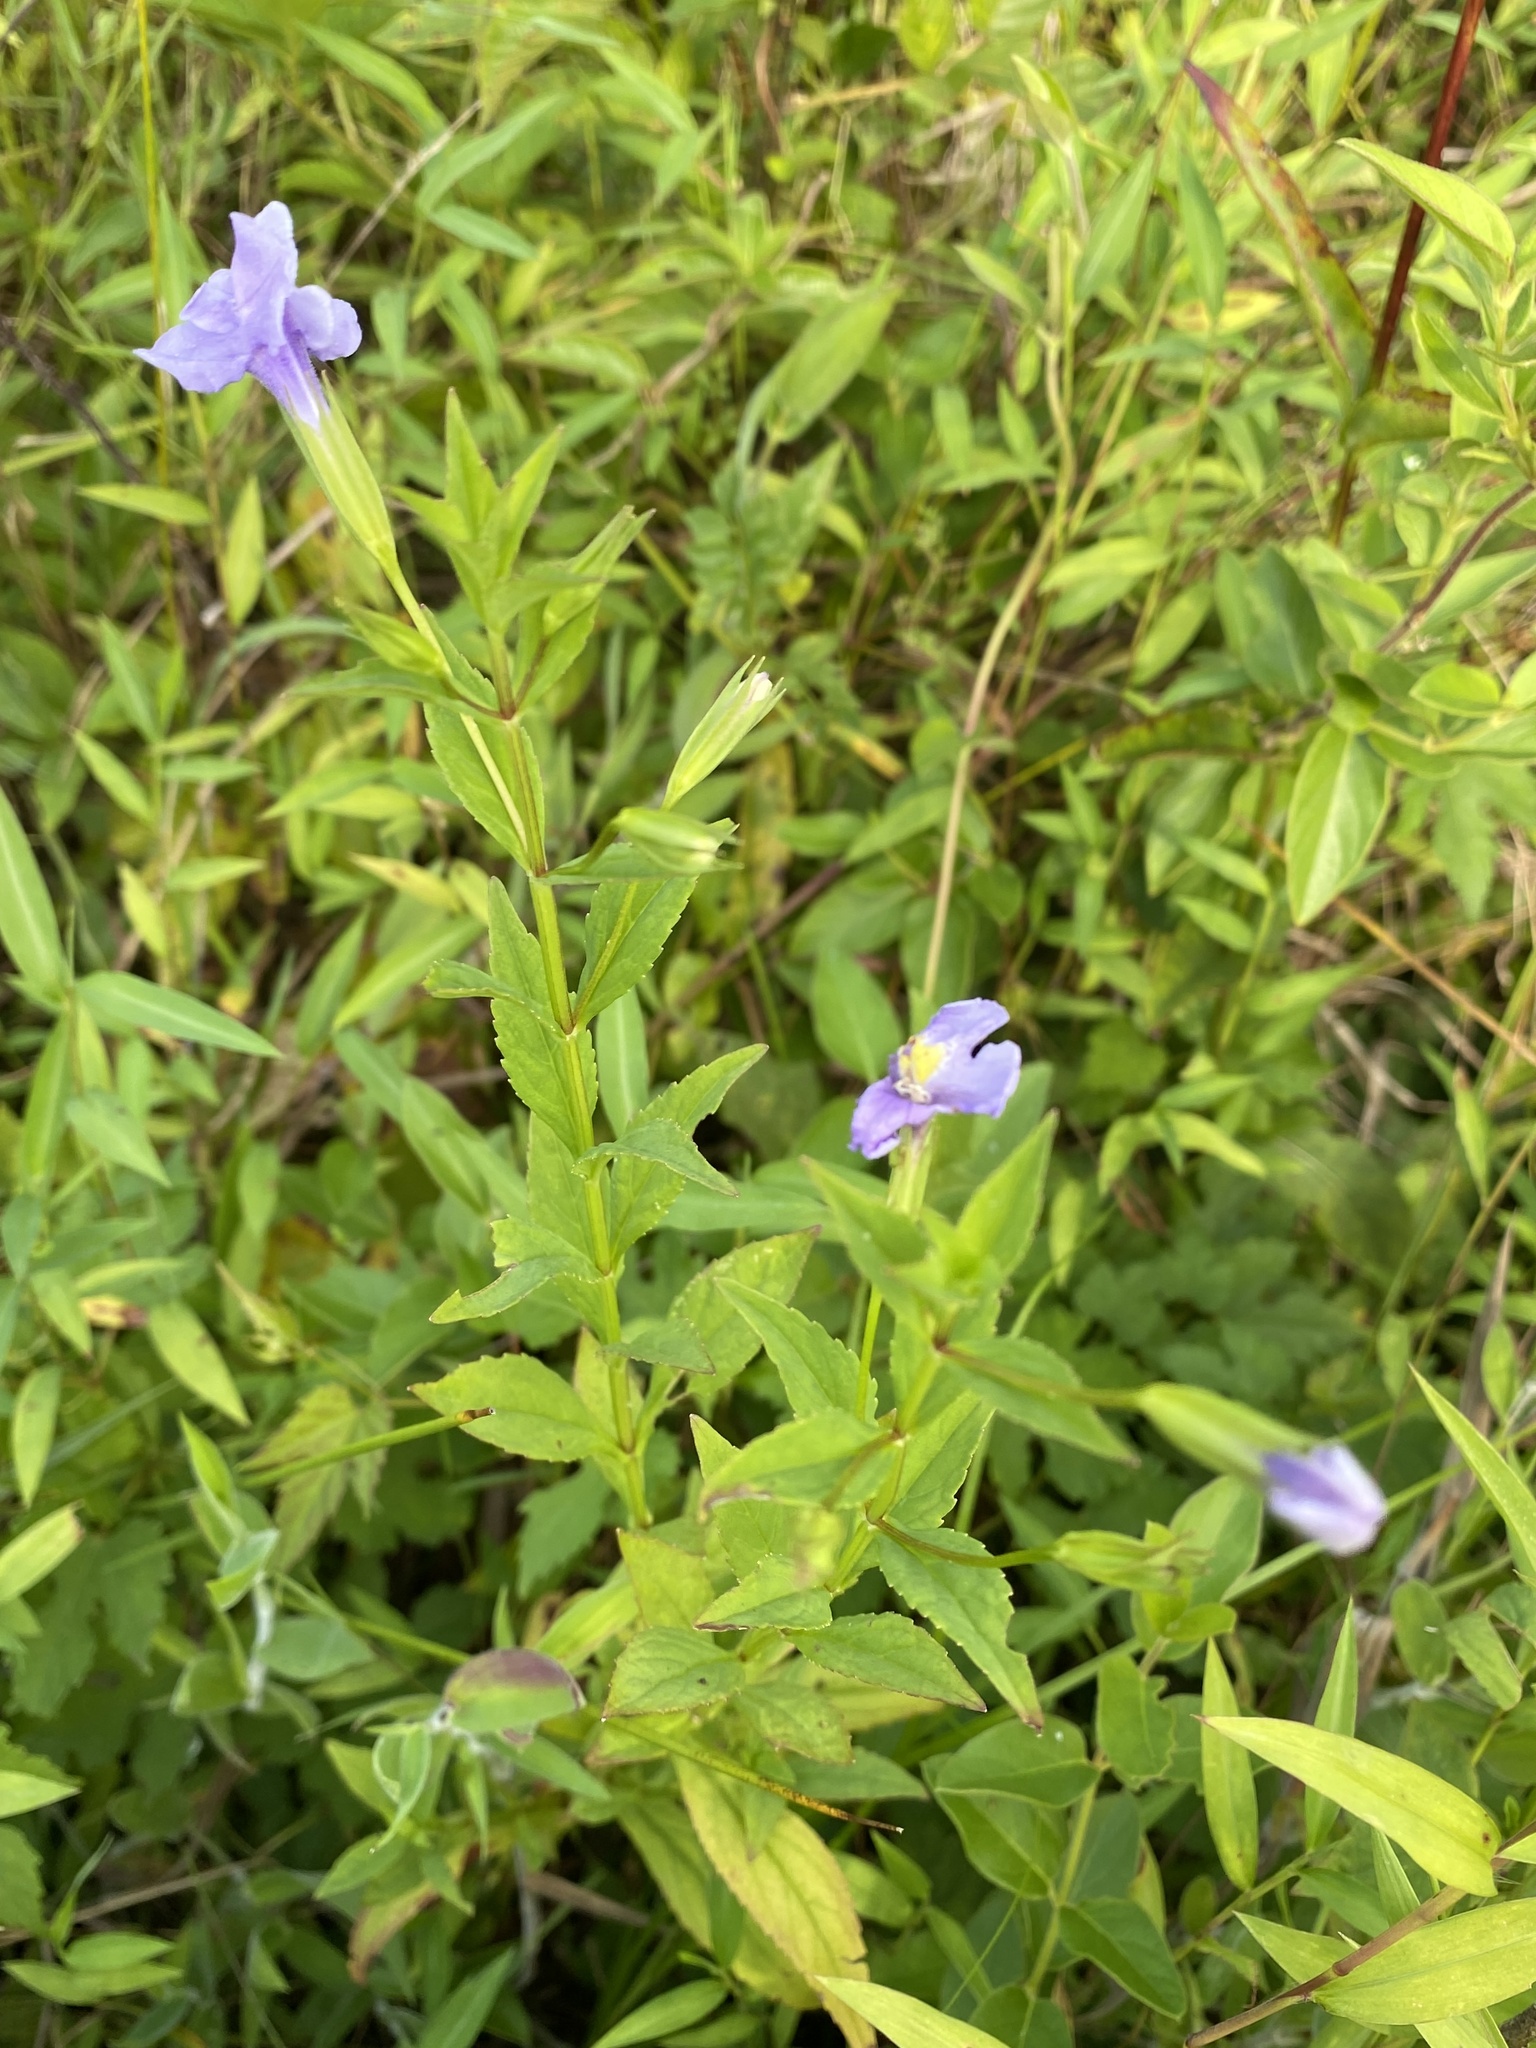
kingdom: Plantae
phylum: Tracheophyta
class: Magnoliopsida
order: Lamiales
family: Phrymaceae
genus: Mimulus
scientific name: Mimulus ringens
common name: Allegheny monkeyflower
